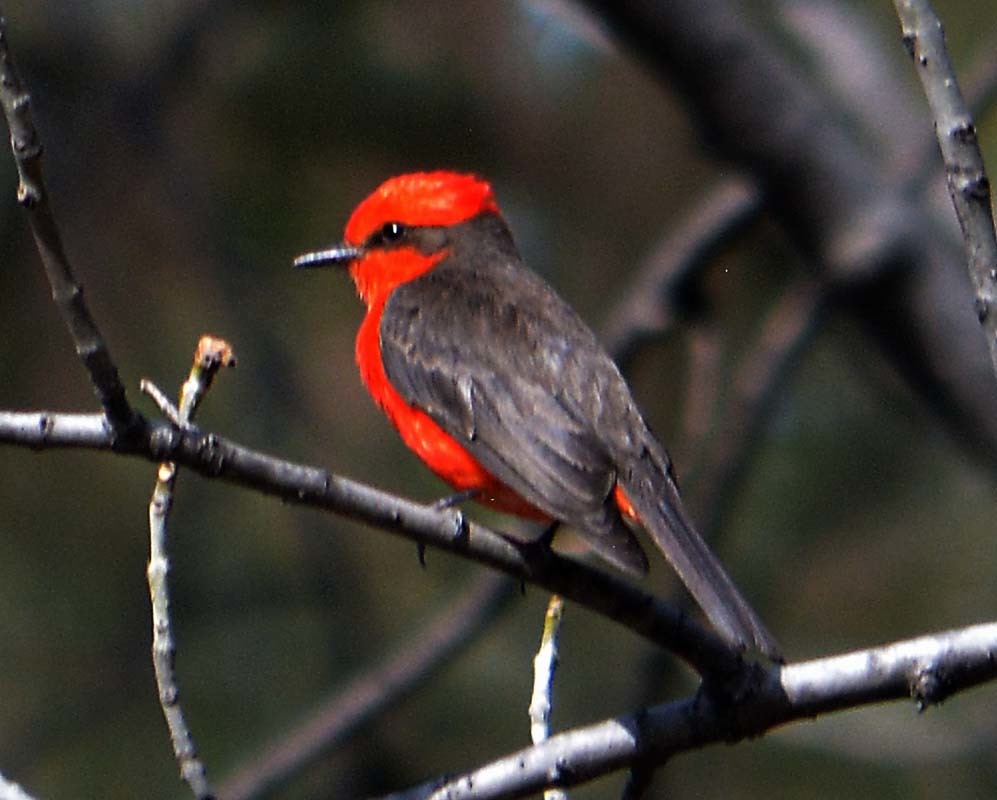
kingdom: Animalia
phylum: Chordata
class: Aves
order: Passeriformes
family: Tyrannidae
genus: Pyrocephalus
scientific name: Pyrocephalus rubinus
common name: Vermilion flycatcher
